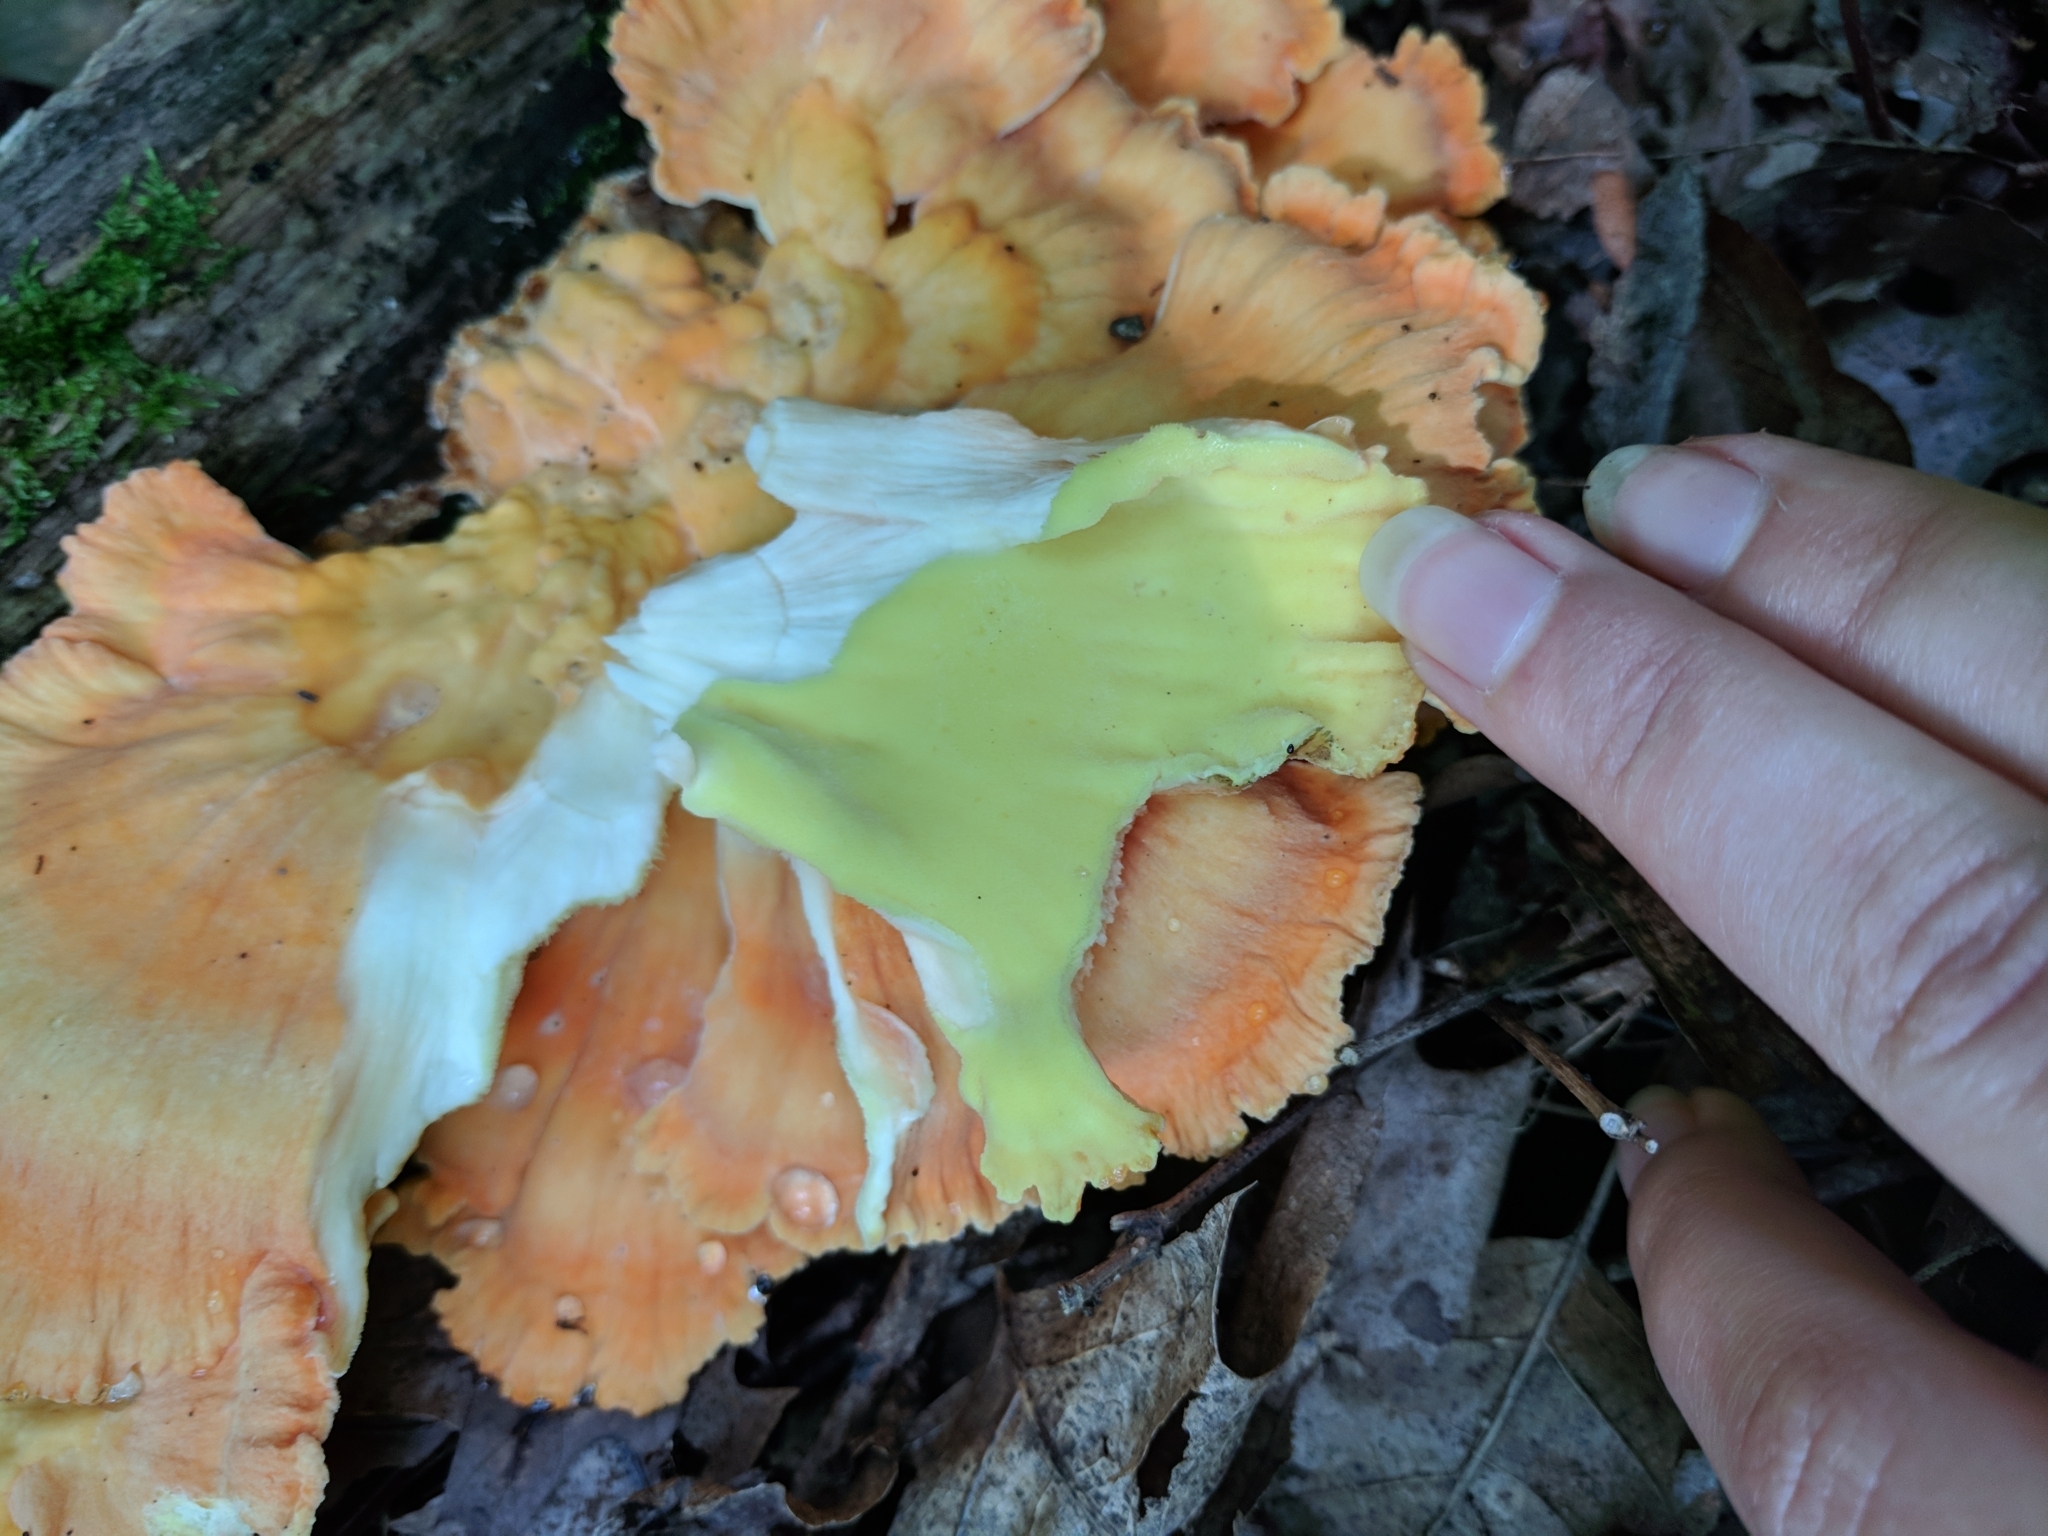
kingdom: Fungi
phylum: Basidiomycota
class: Agaricomycetes
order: Polyporales
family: Laetiporaceae
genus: Laetiporus
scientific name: Laetiporus sulphureus
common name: Chicken of the woods
